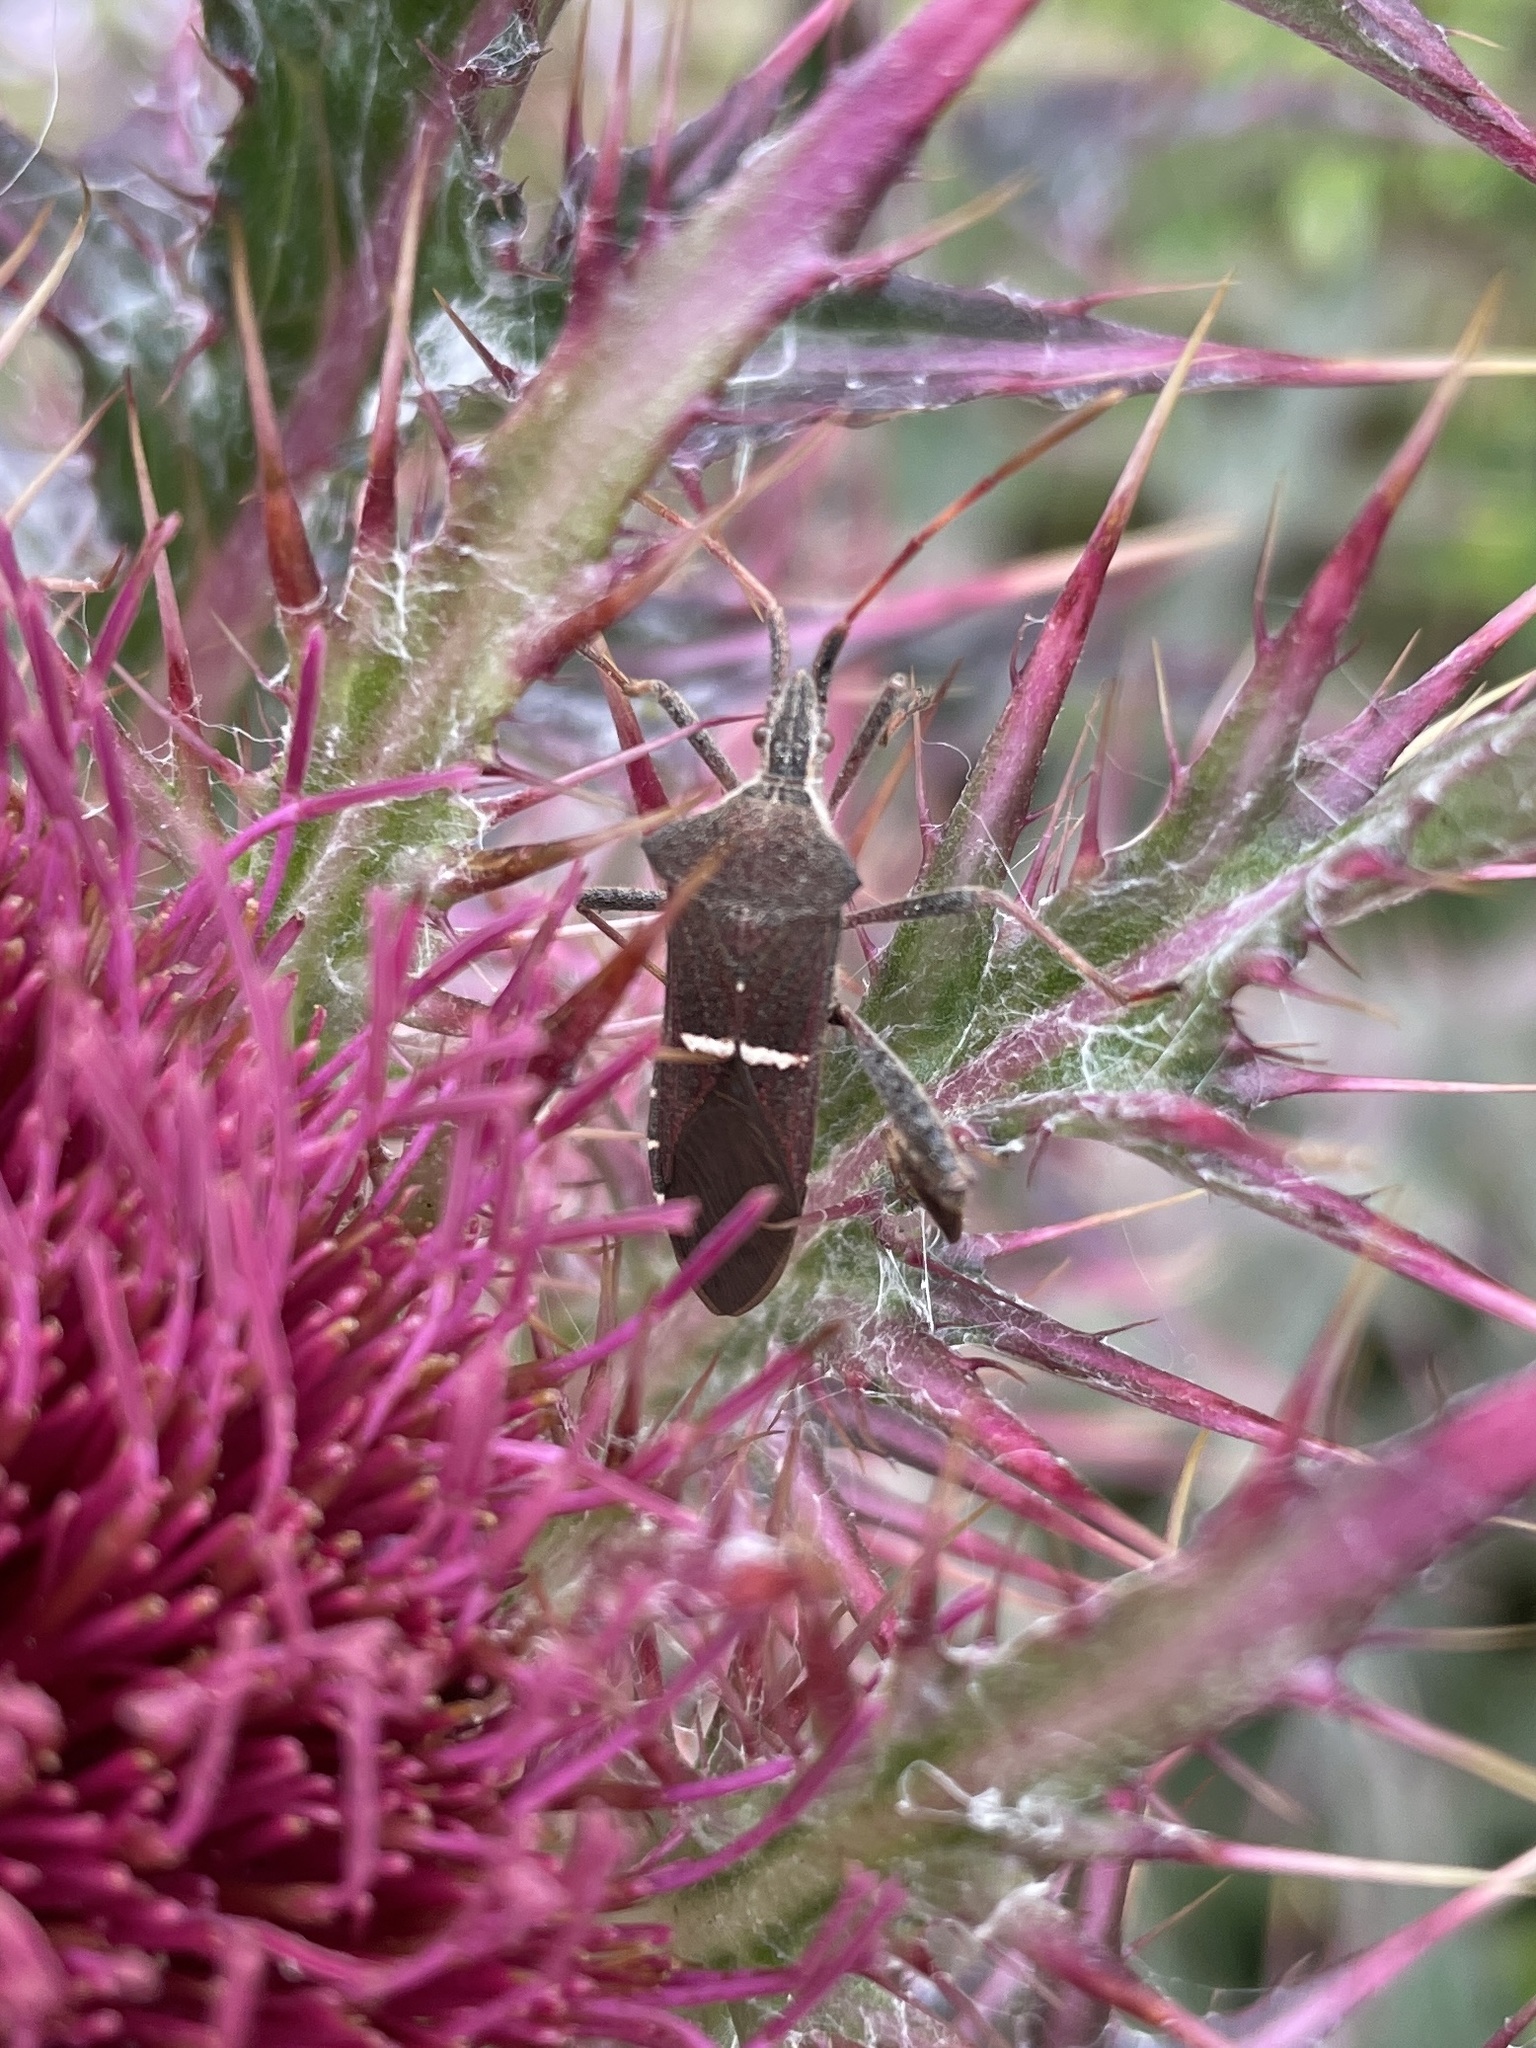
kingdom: Animalia
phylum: Arthropoda
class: Insecta
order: Hemiptera
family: Coreidae
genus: Leptoglossus
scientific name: Leptoglossus phyllopus
